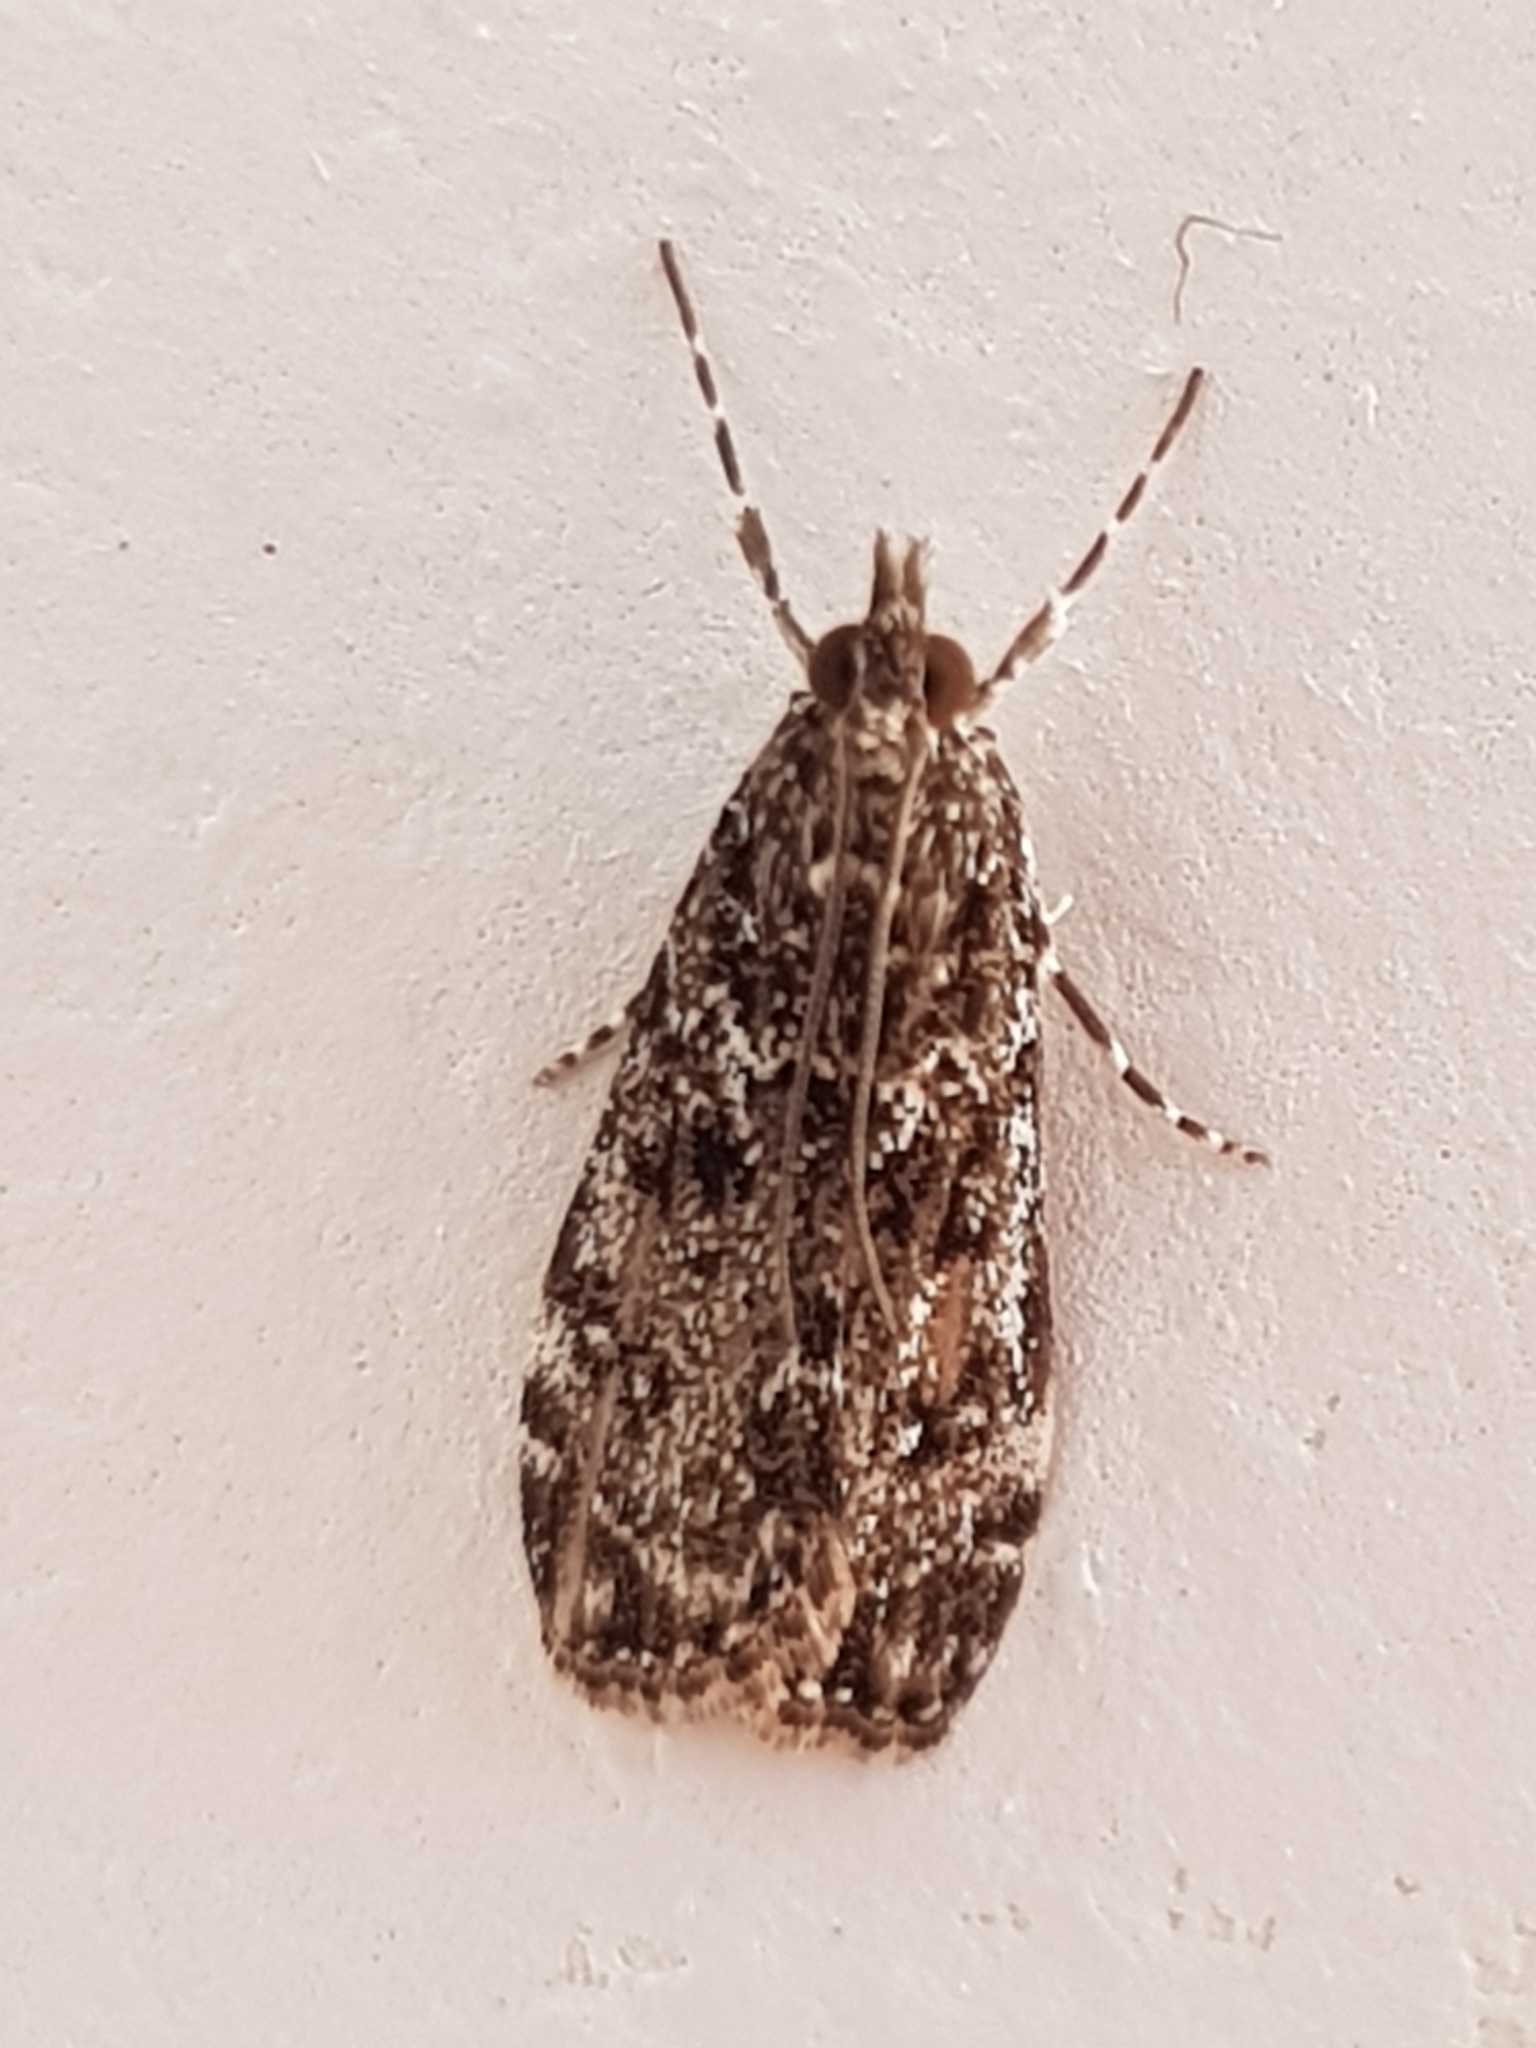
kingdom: Animalia
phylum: Arthropoda
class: Insecta
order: Lepidoptera
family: Crambidae
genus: Eudonia
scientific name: Eudonia philerga
